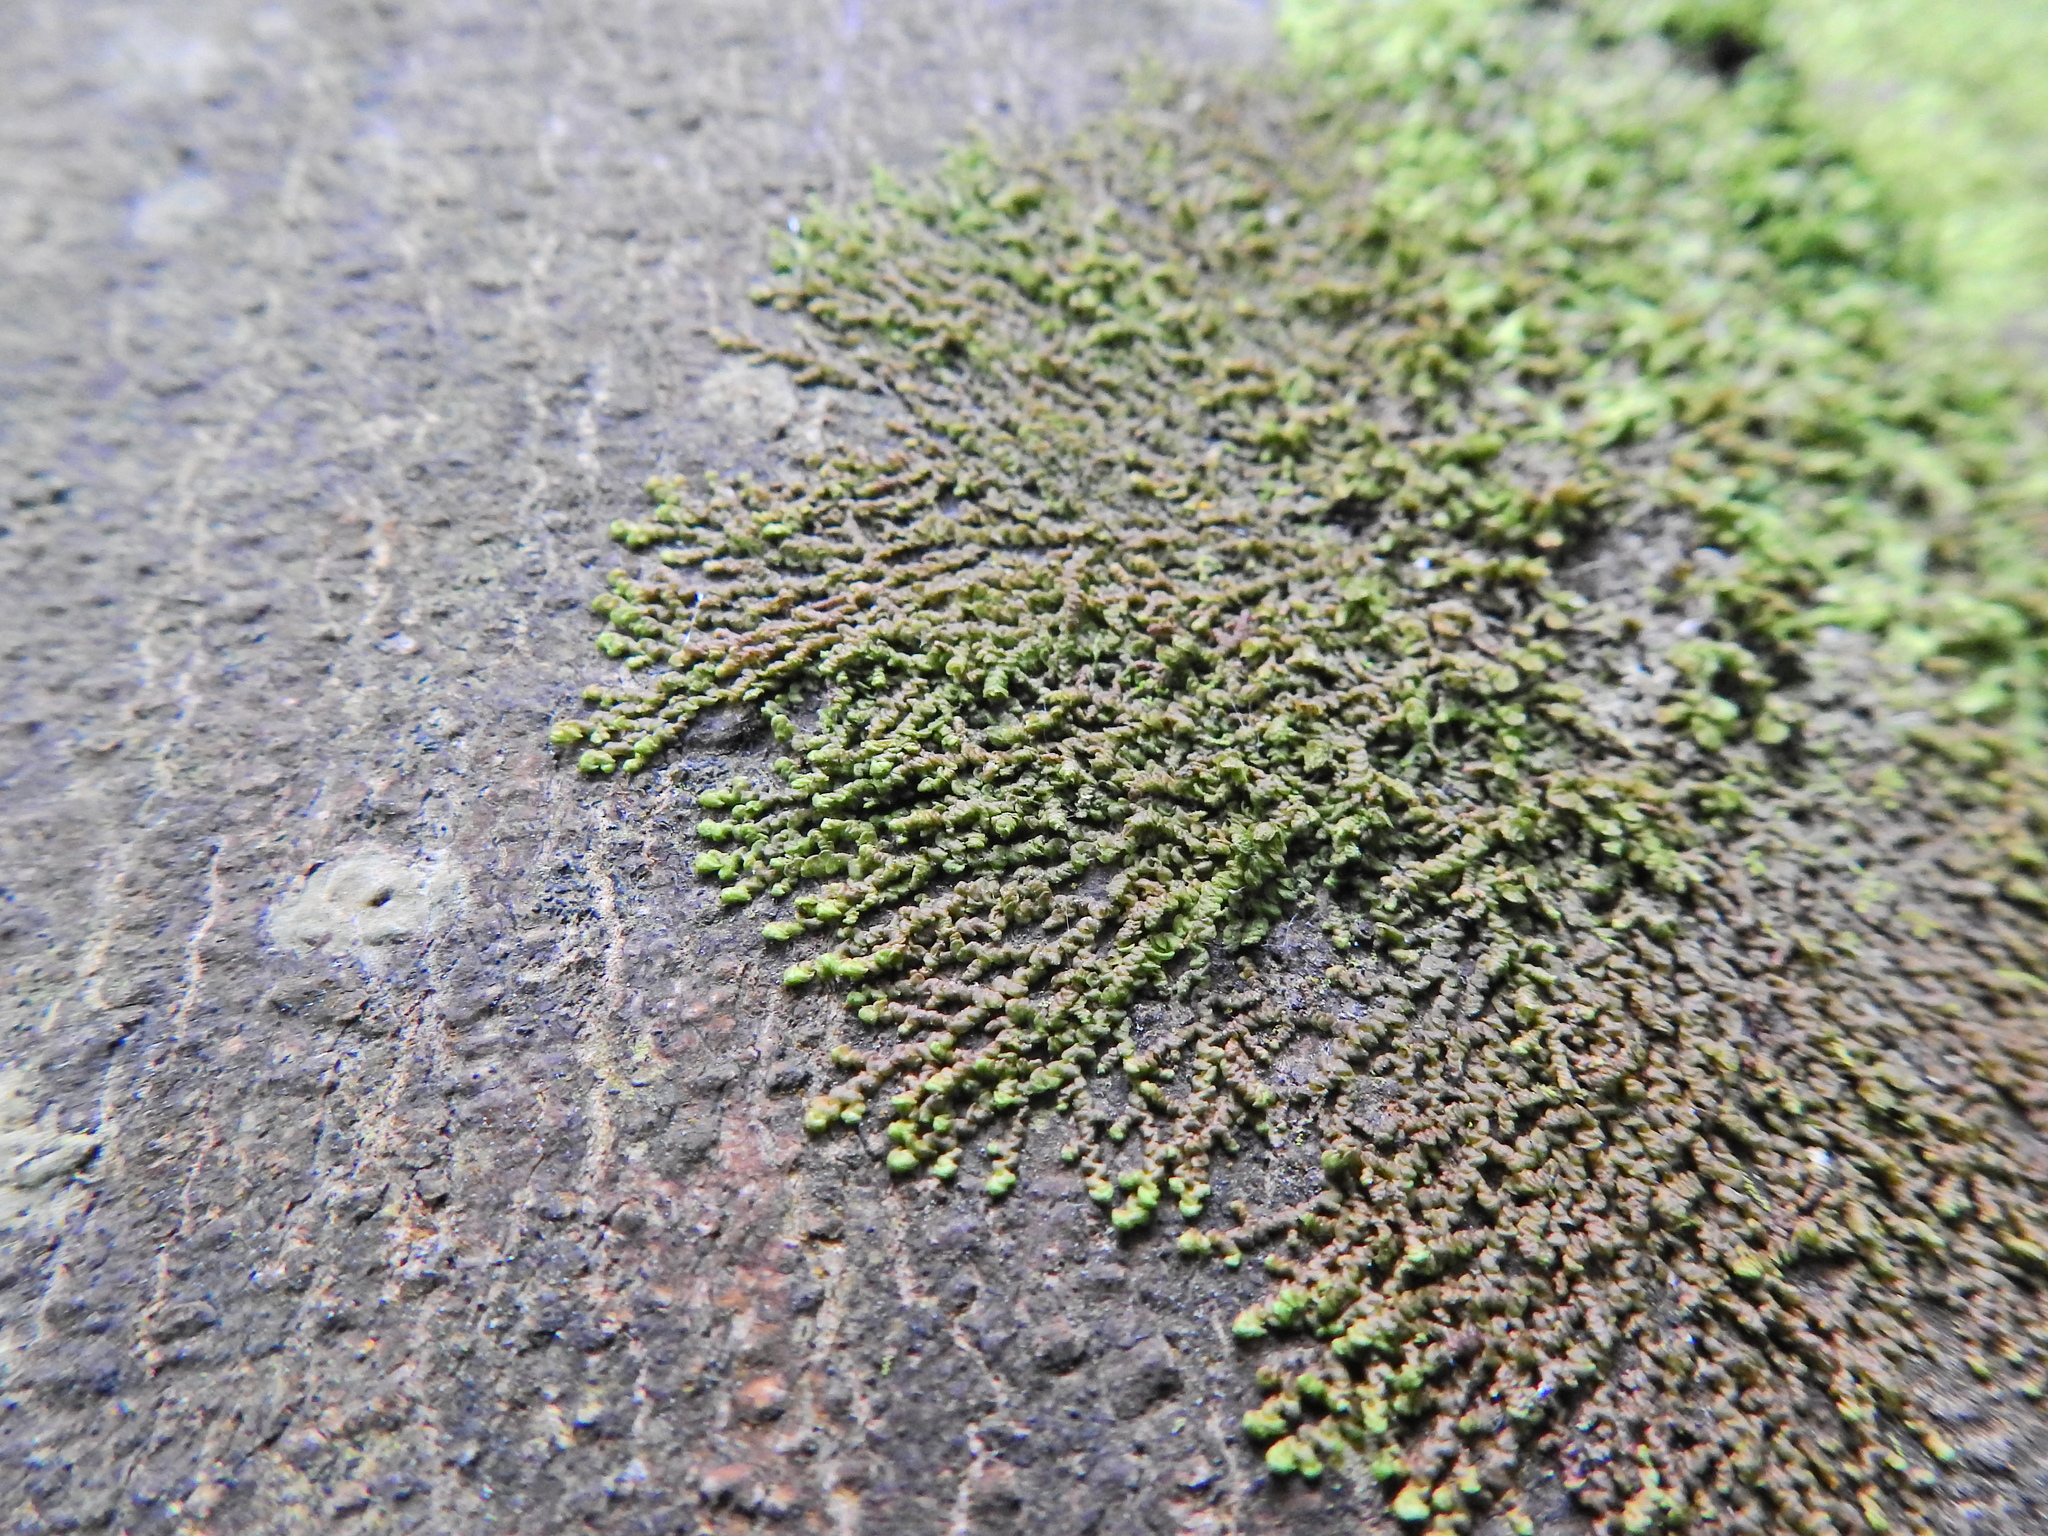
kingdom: Plantae
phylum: Marchantiophyta
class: Jungermanniopsida
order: Porellales
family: Frullaniaceae
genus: Frullania
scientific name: Frullania dilatata
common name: Dilated scalewort
